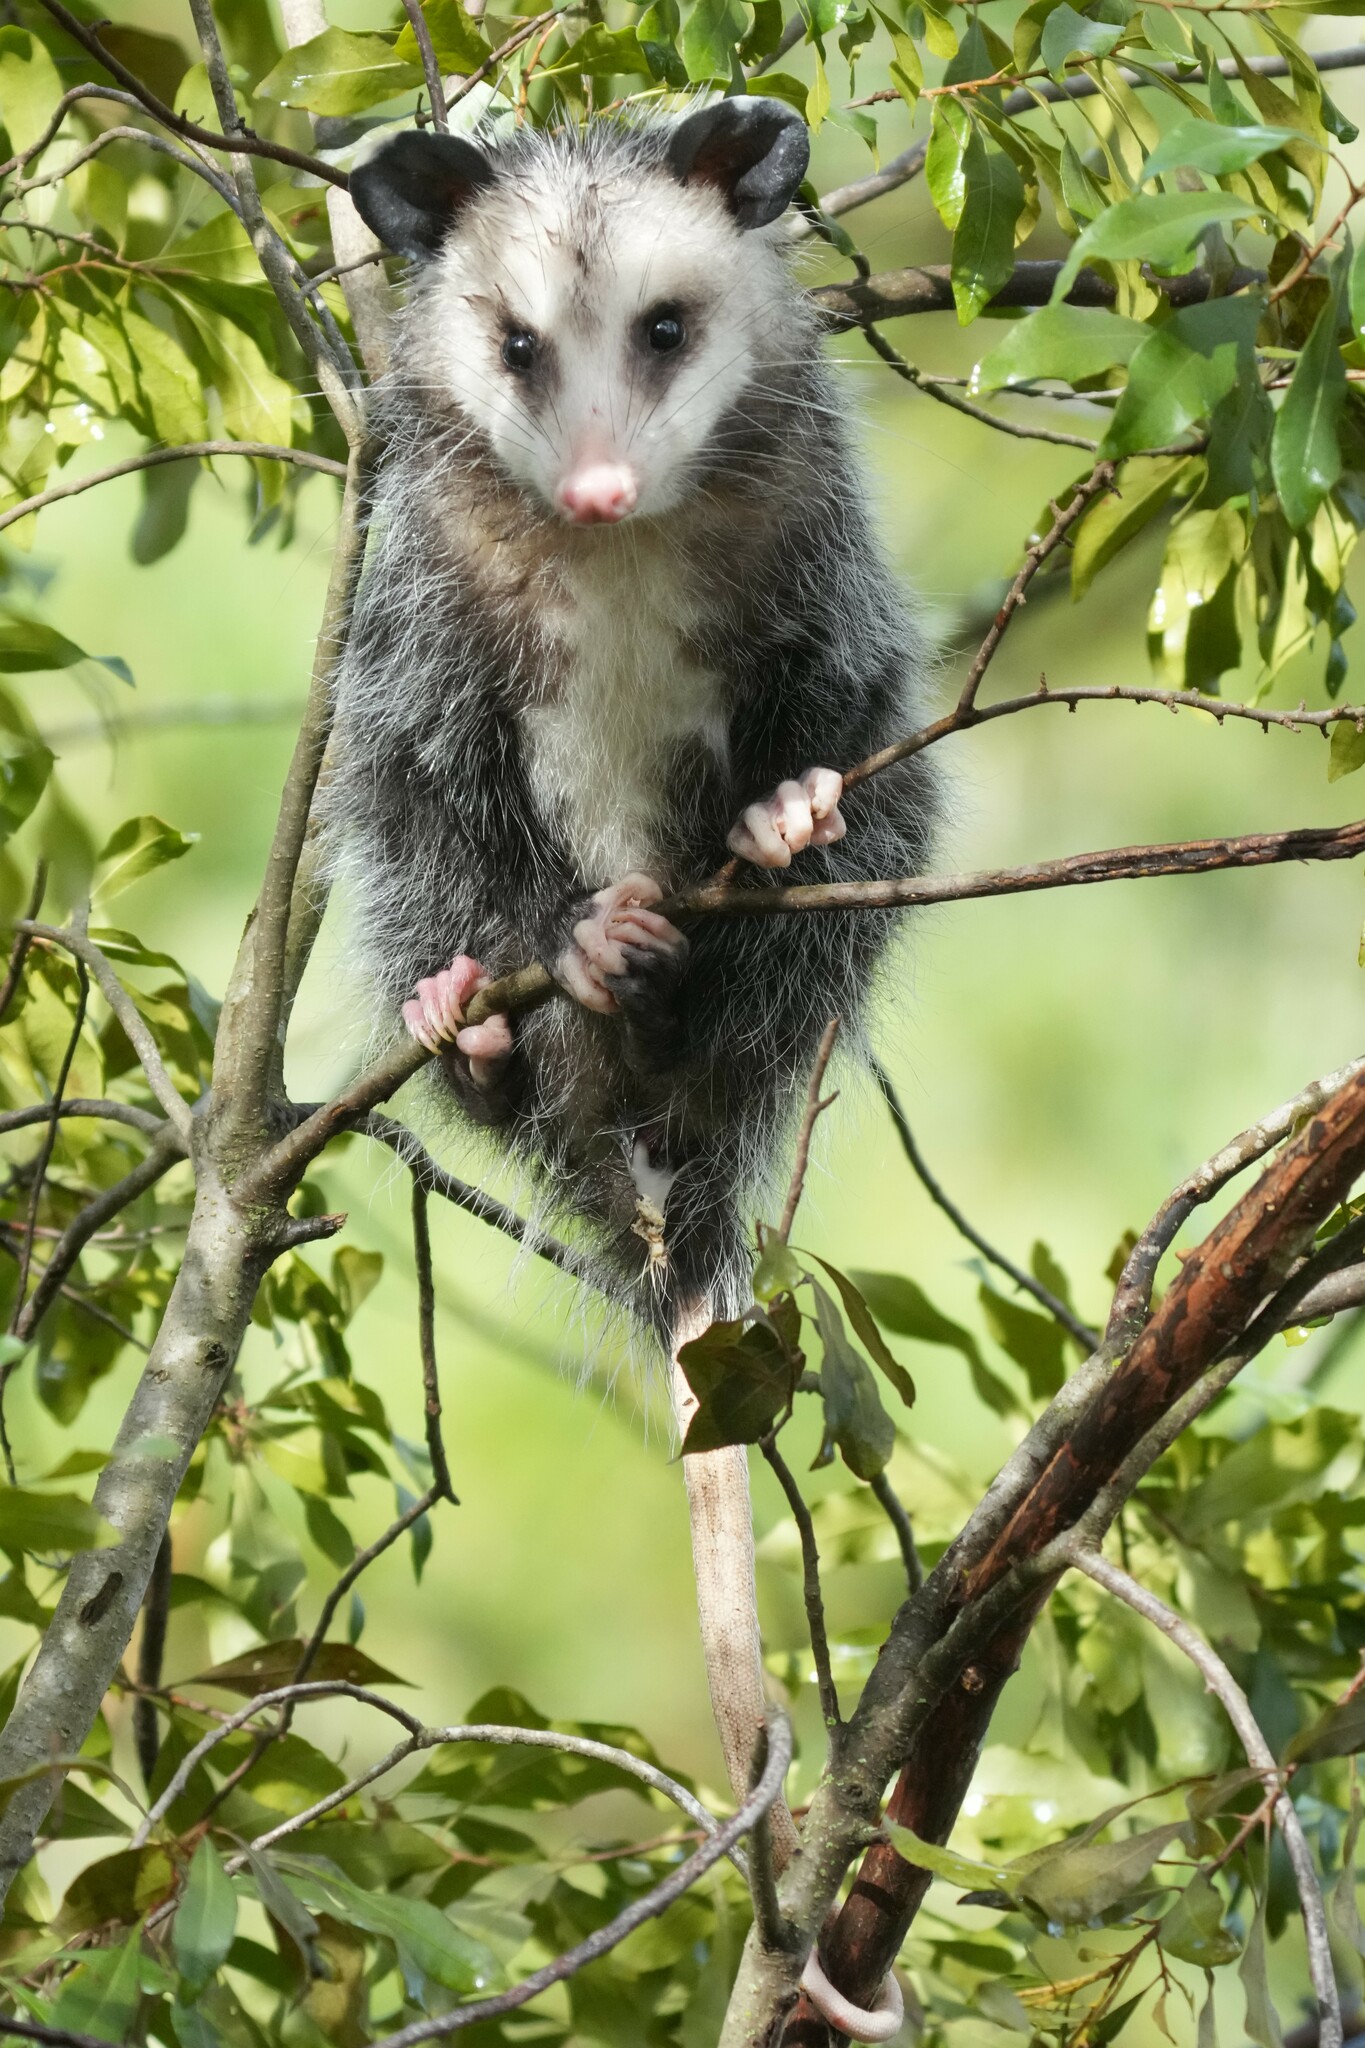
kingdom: Animalia
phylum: Chordata
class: Mammalia
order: Didelphimorphia
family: Didelphidae
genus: Didelphis
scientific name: Didelphis virginiana
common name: Virginia opossum
